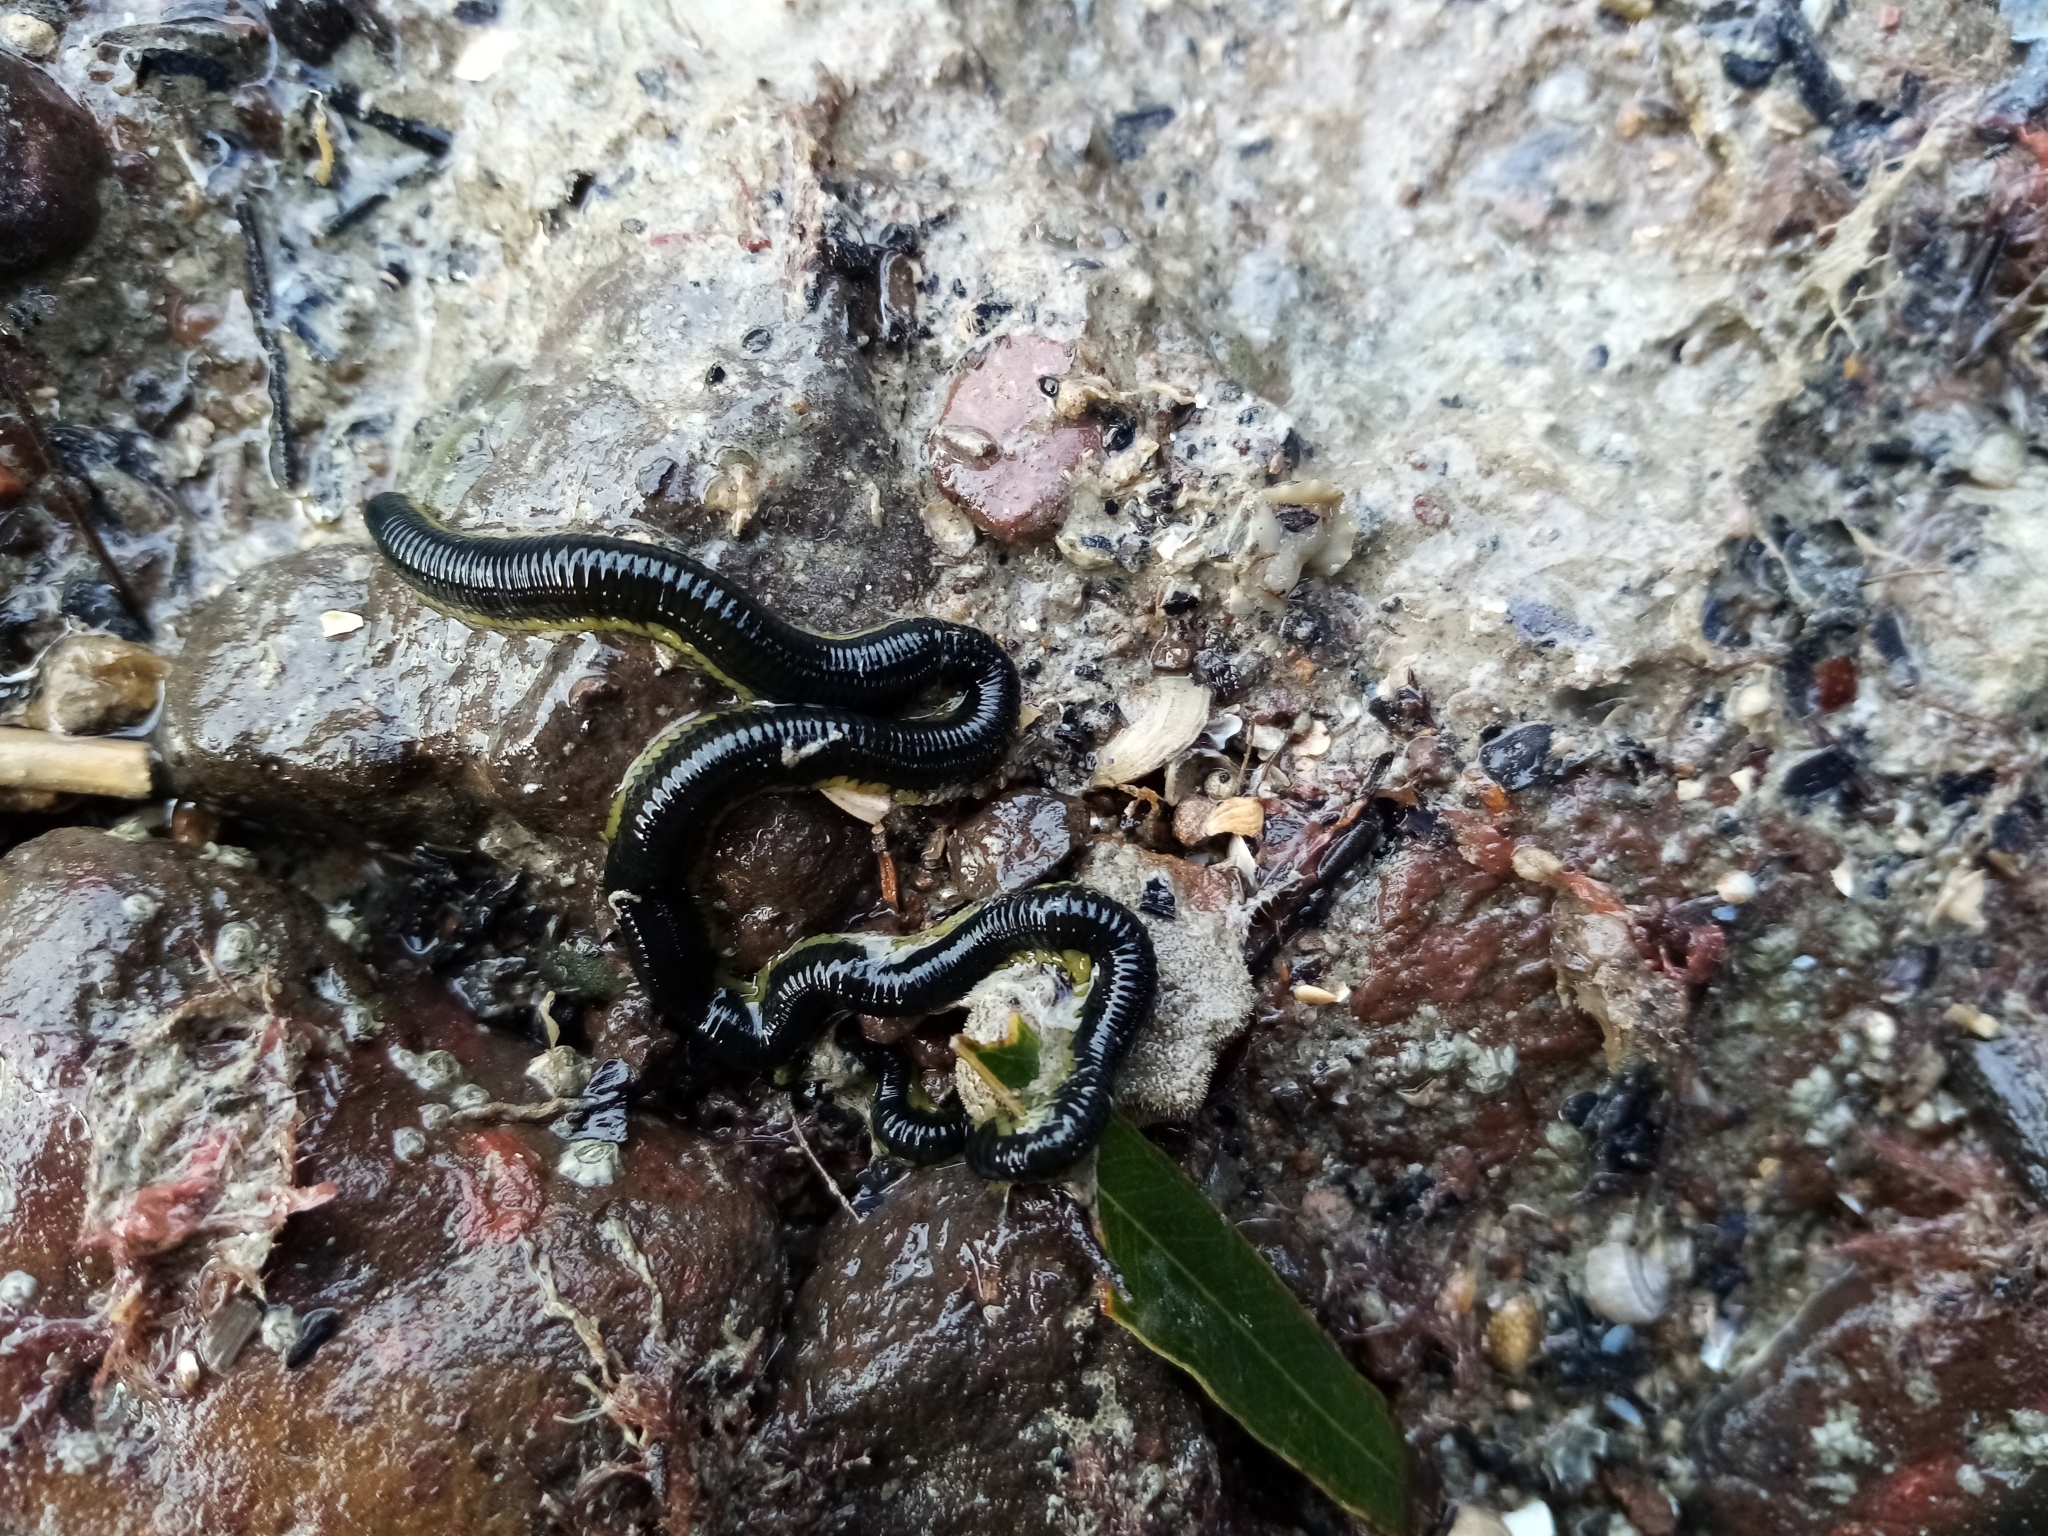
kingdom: Animalia
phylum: Annelida
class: Polychaeta
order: Phyllodocida
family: Phyllodocidae
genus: Eulalia
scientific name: Eulalia microphylla
